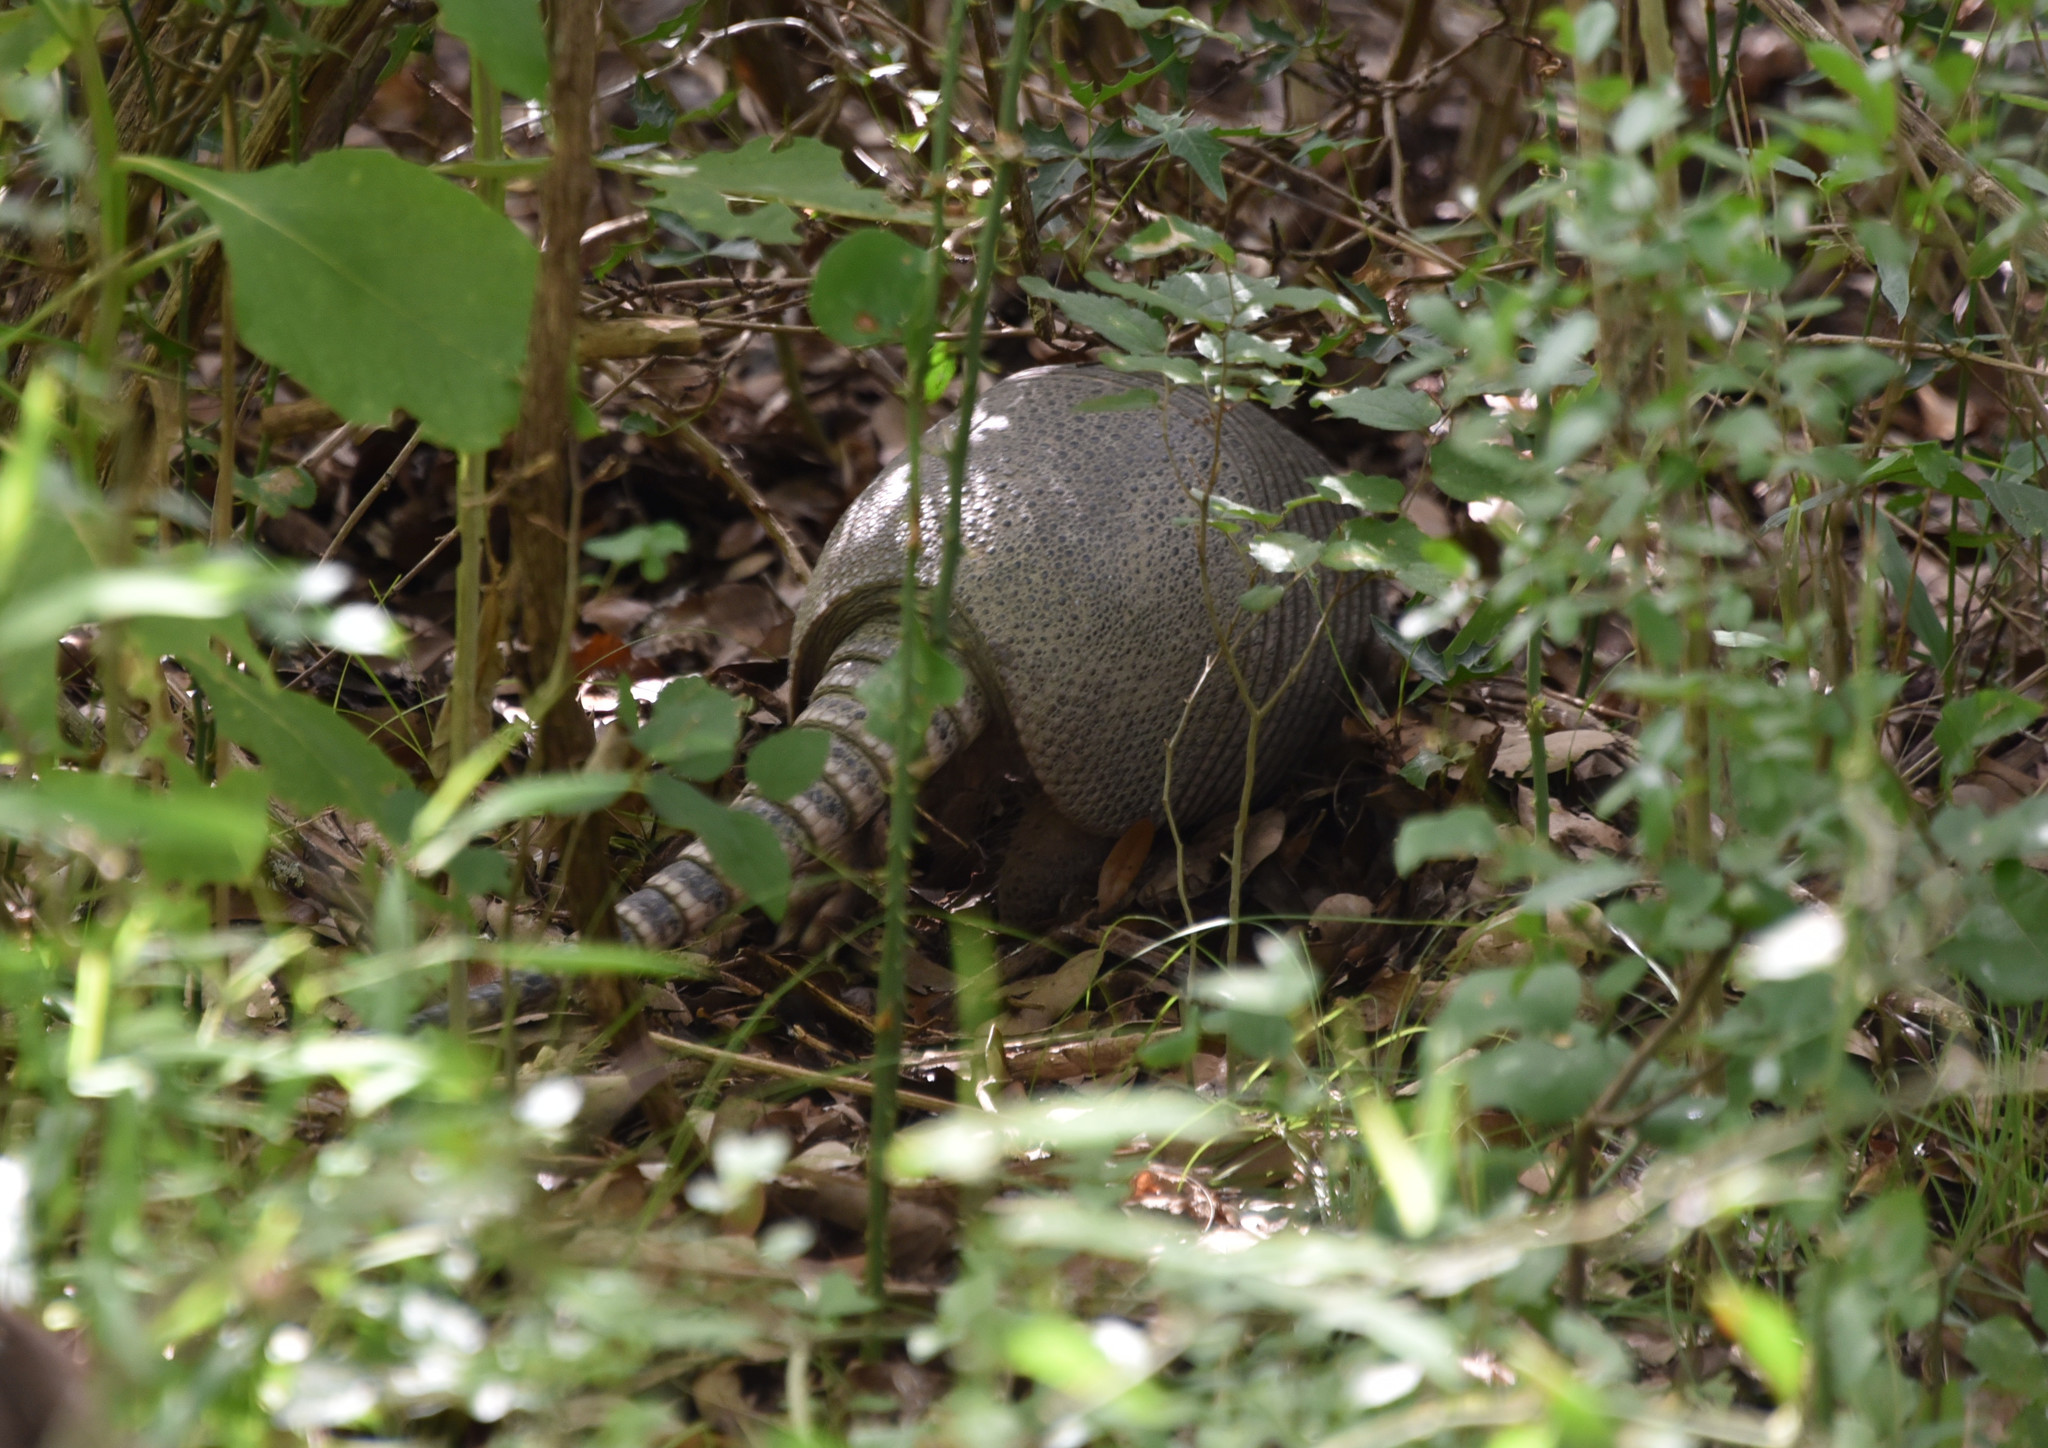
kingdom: Animalia
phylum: Chordata
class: Mammalia
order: Cingulata
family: Dasypodidae
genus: Dasypus
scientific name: Dasypus novemcinctus
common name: Nine-banded armadillo
